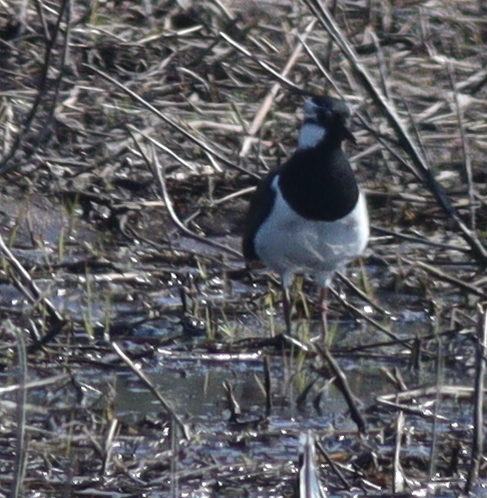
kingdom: Animalia
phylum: Chordata
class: Aves
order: Charadriiformes
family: Charadriidae
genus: Vanellus
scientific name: Vanellus vanellus
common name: Northern lapwing
